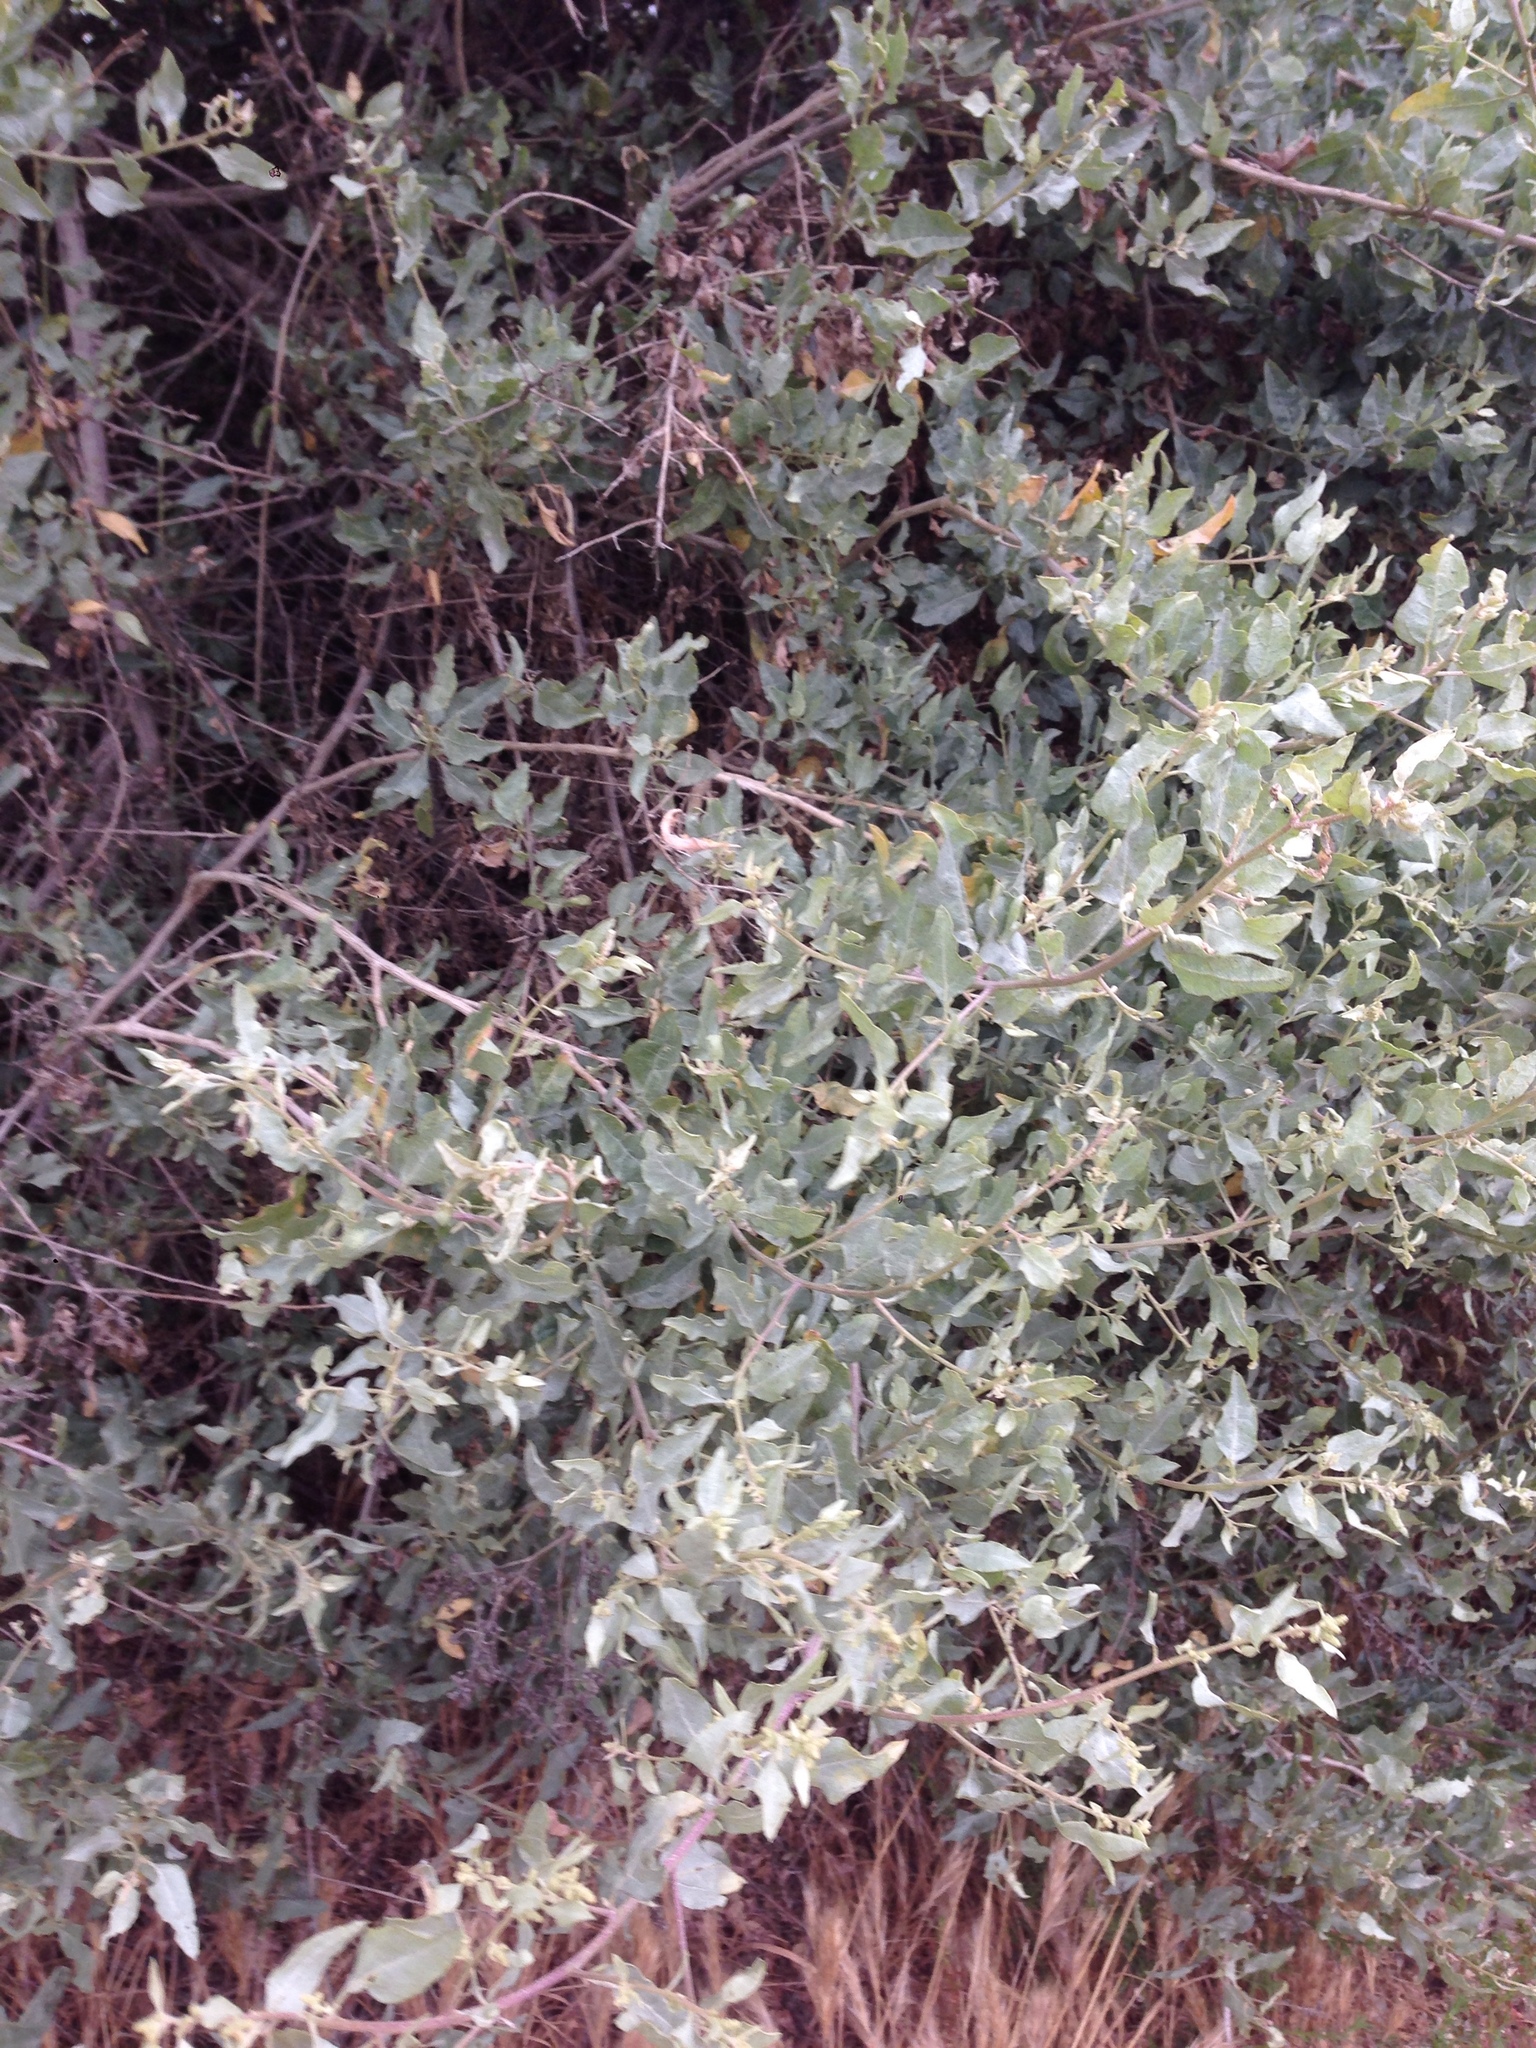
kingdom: Plantae
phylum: Tracheophyta
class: Magnoliopsida
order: Caryophyllales
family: Amaranthaceae
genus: Atriplex
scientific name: Atriplex lentiformis
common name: Big saltbush
